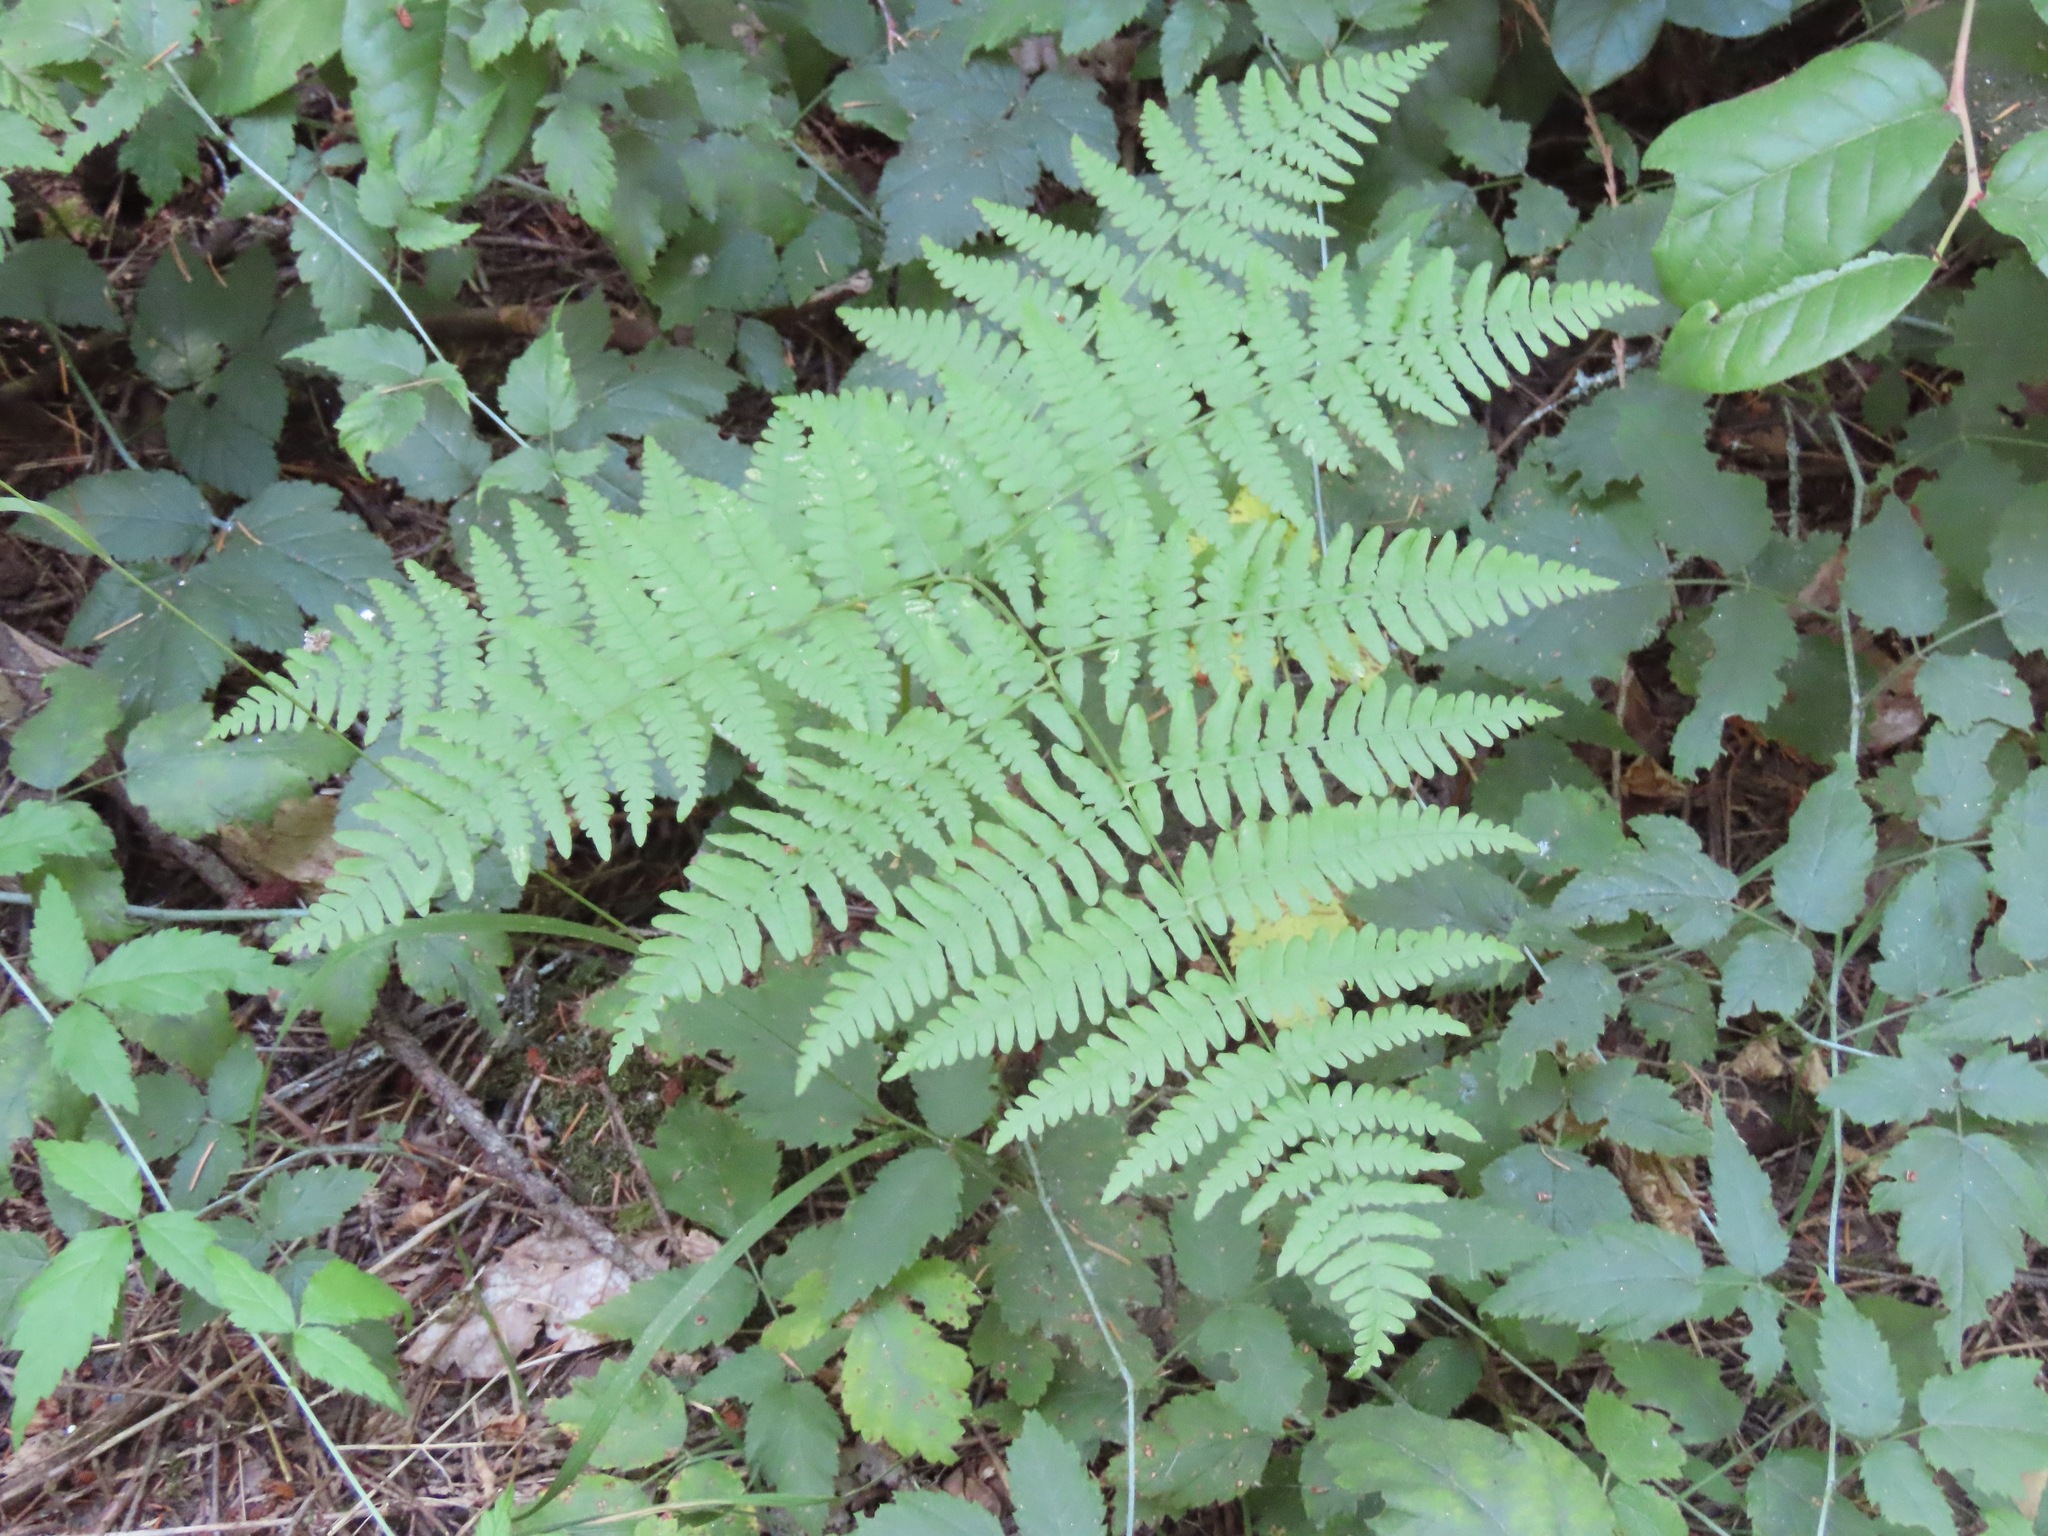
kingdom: Plantae
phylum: Tracheophyta
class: Polypodiopsida
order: Polypodiales
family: Dennstaedtiaceae
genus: Pteridium
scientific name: Pteridium aquilinum
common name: Bracken
